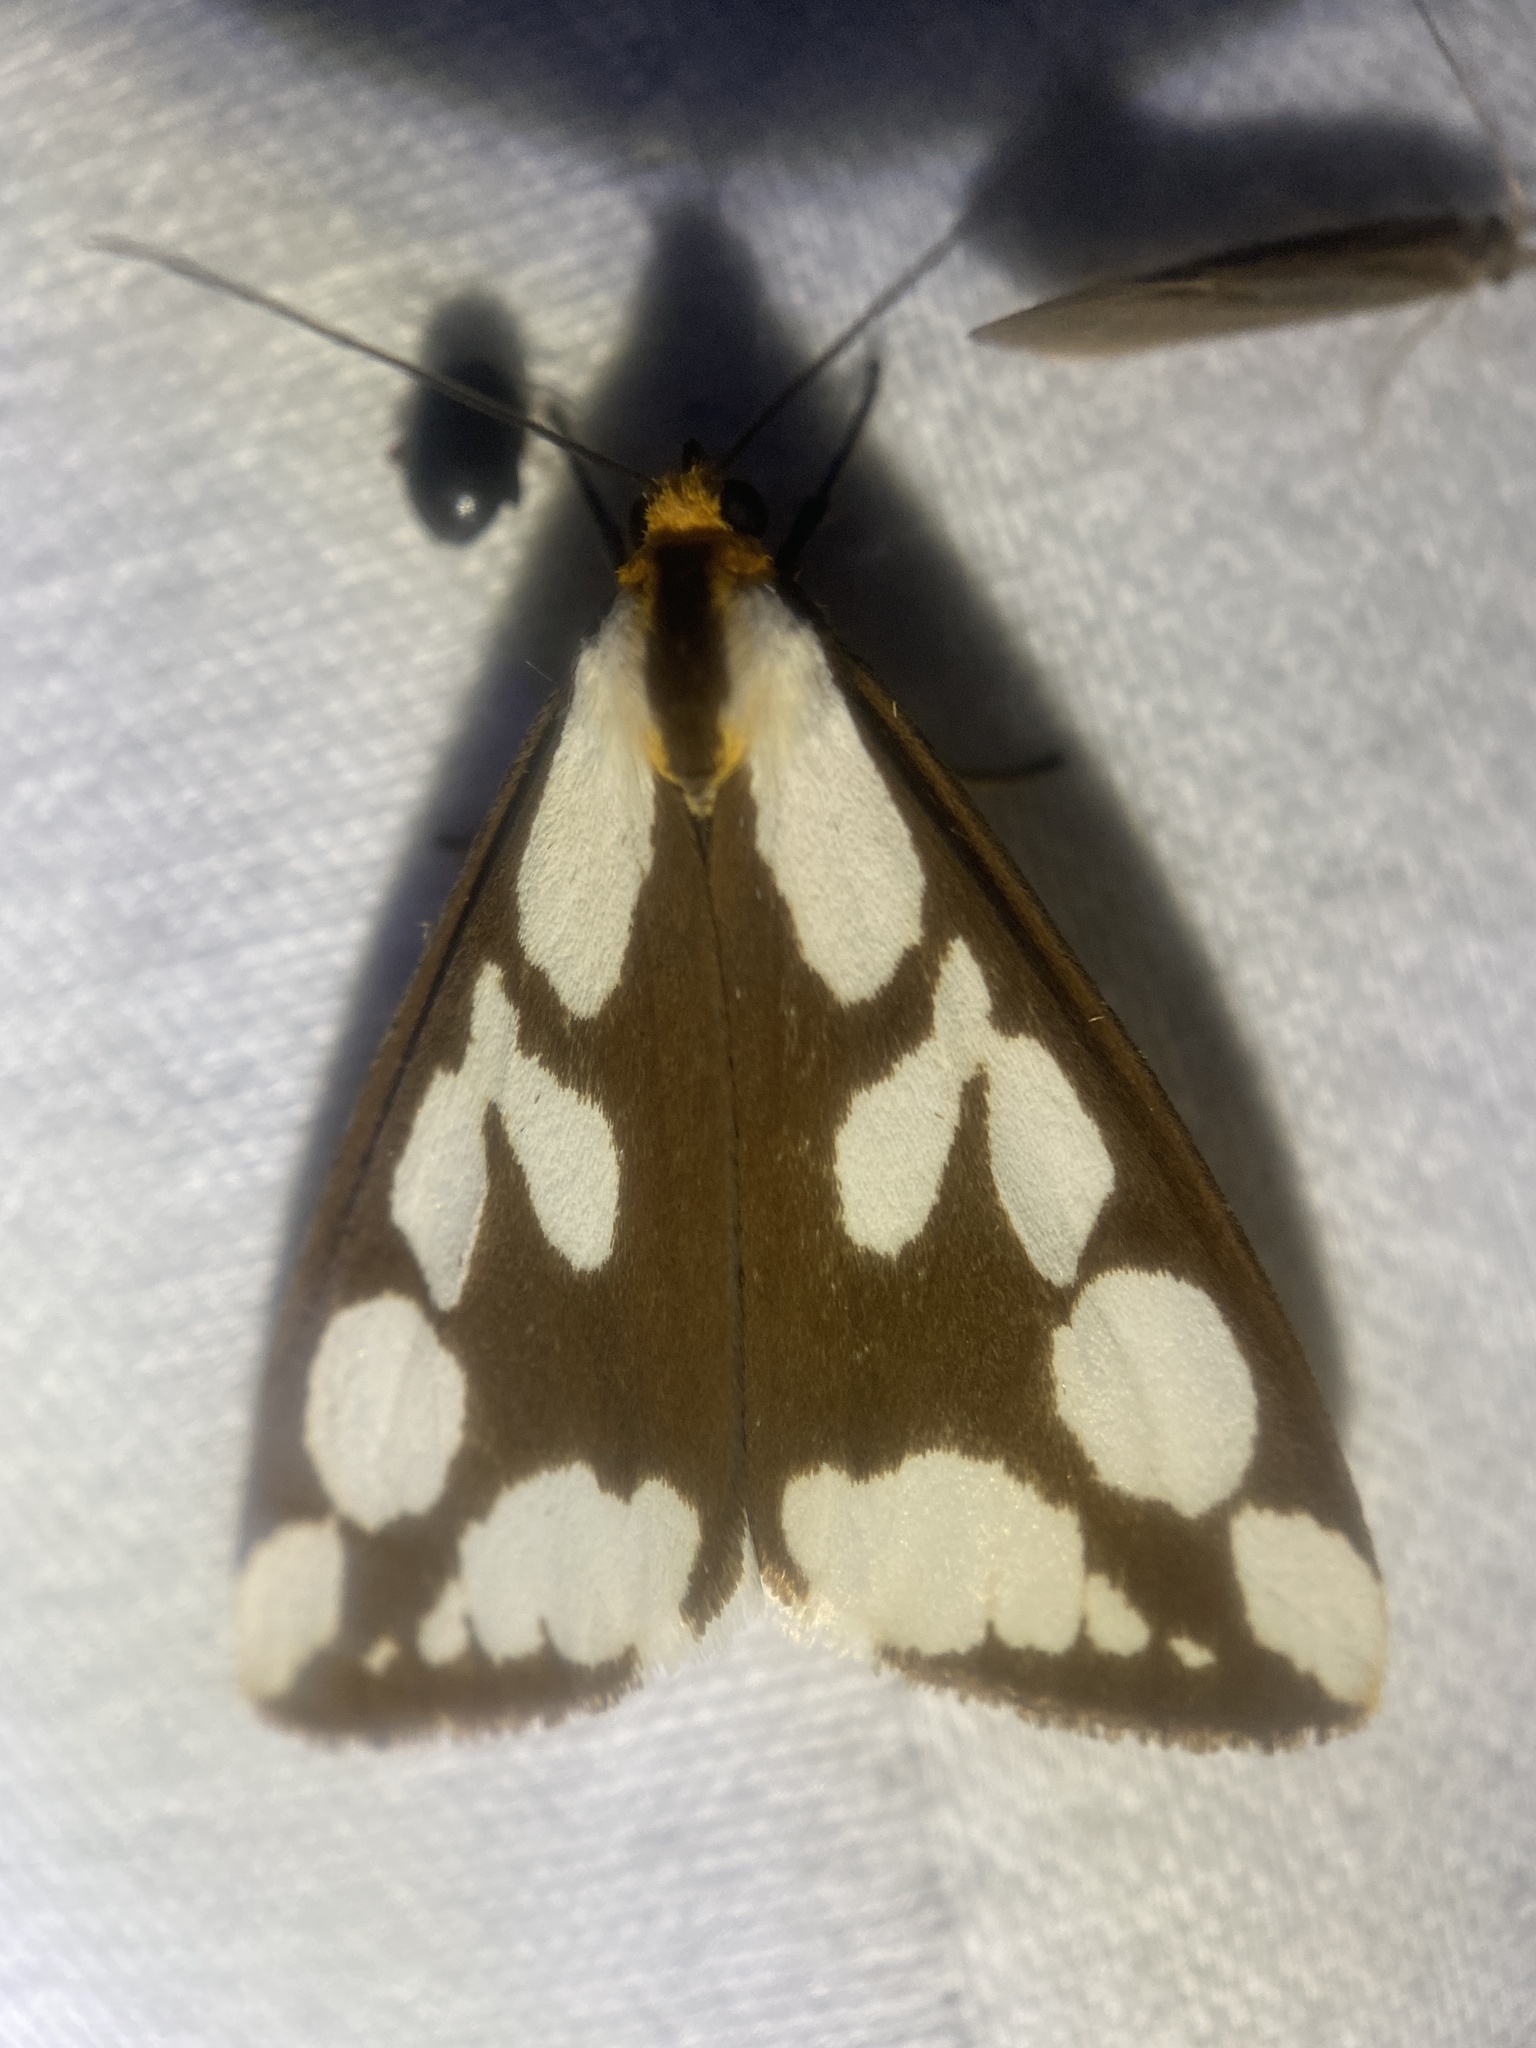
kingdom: Animalia
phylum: Arthropoda
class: Insecta
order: Lepidoptera
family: Erebidae
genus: Haploa
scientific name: Haploa confusa
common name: Confused haploa moth
